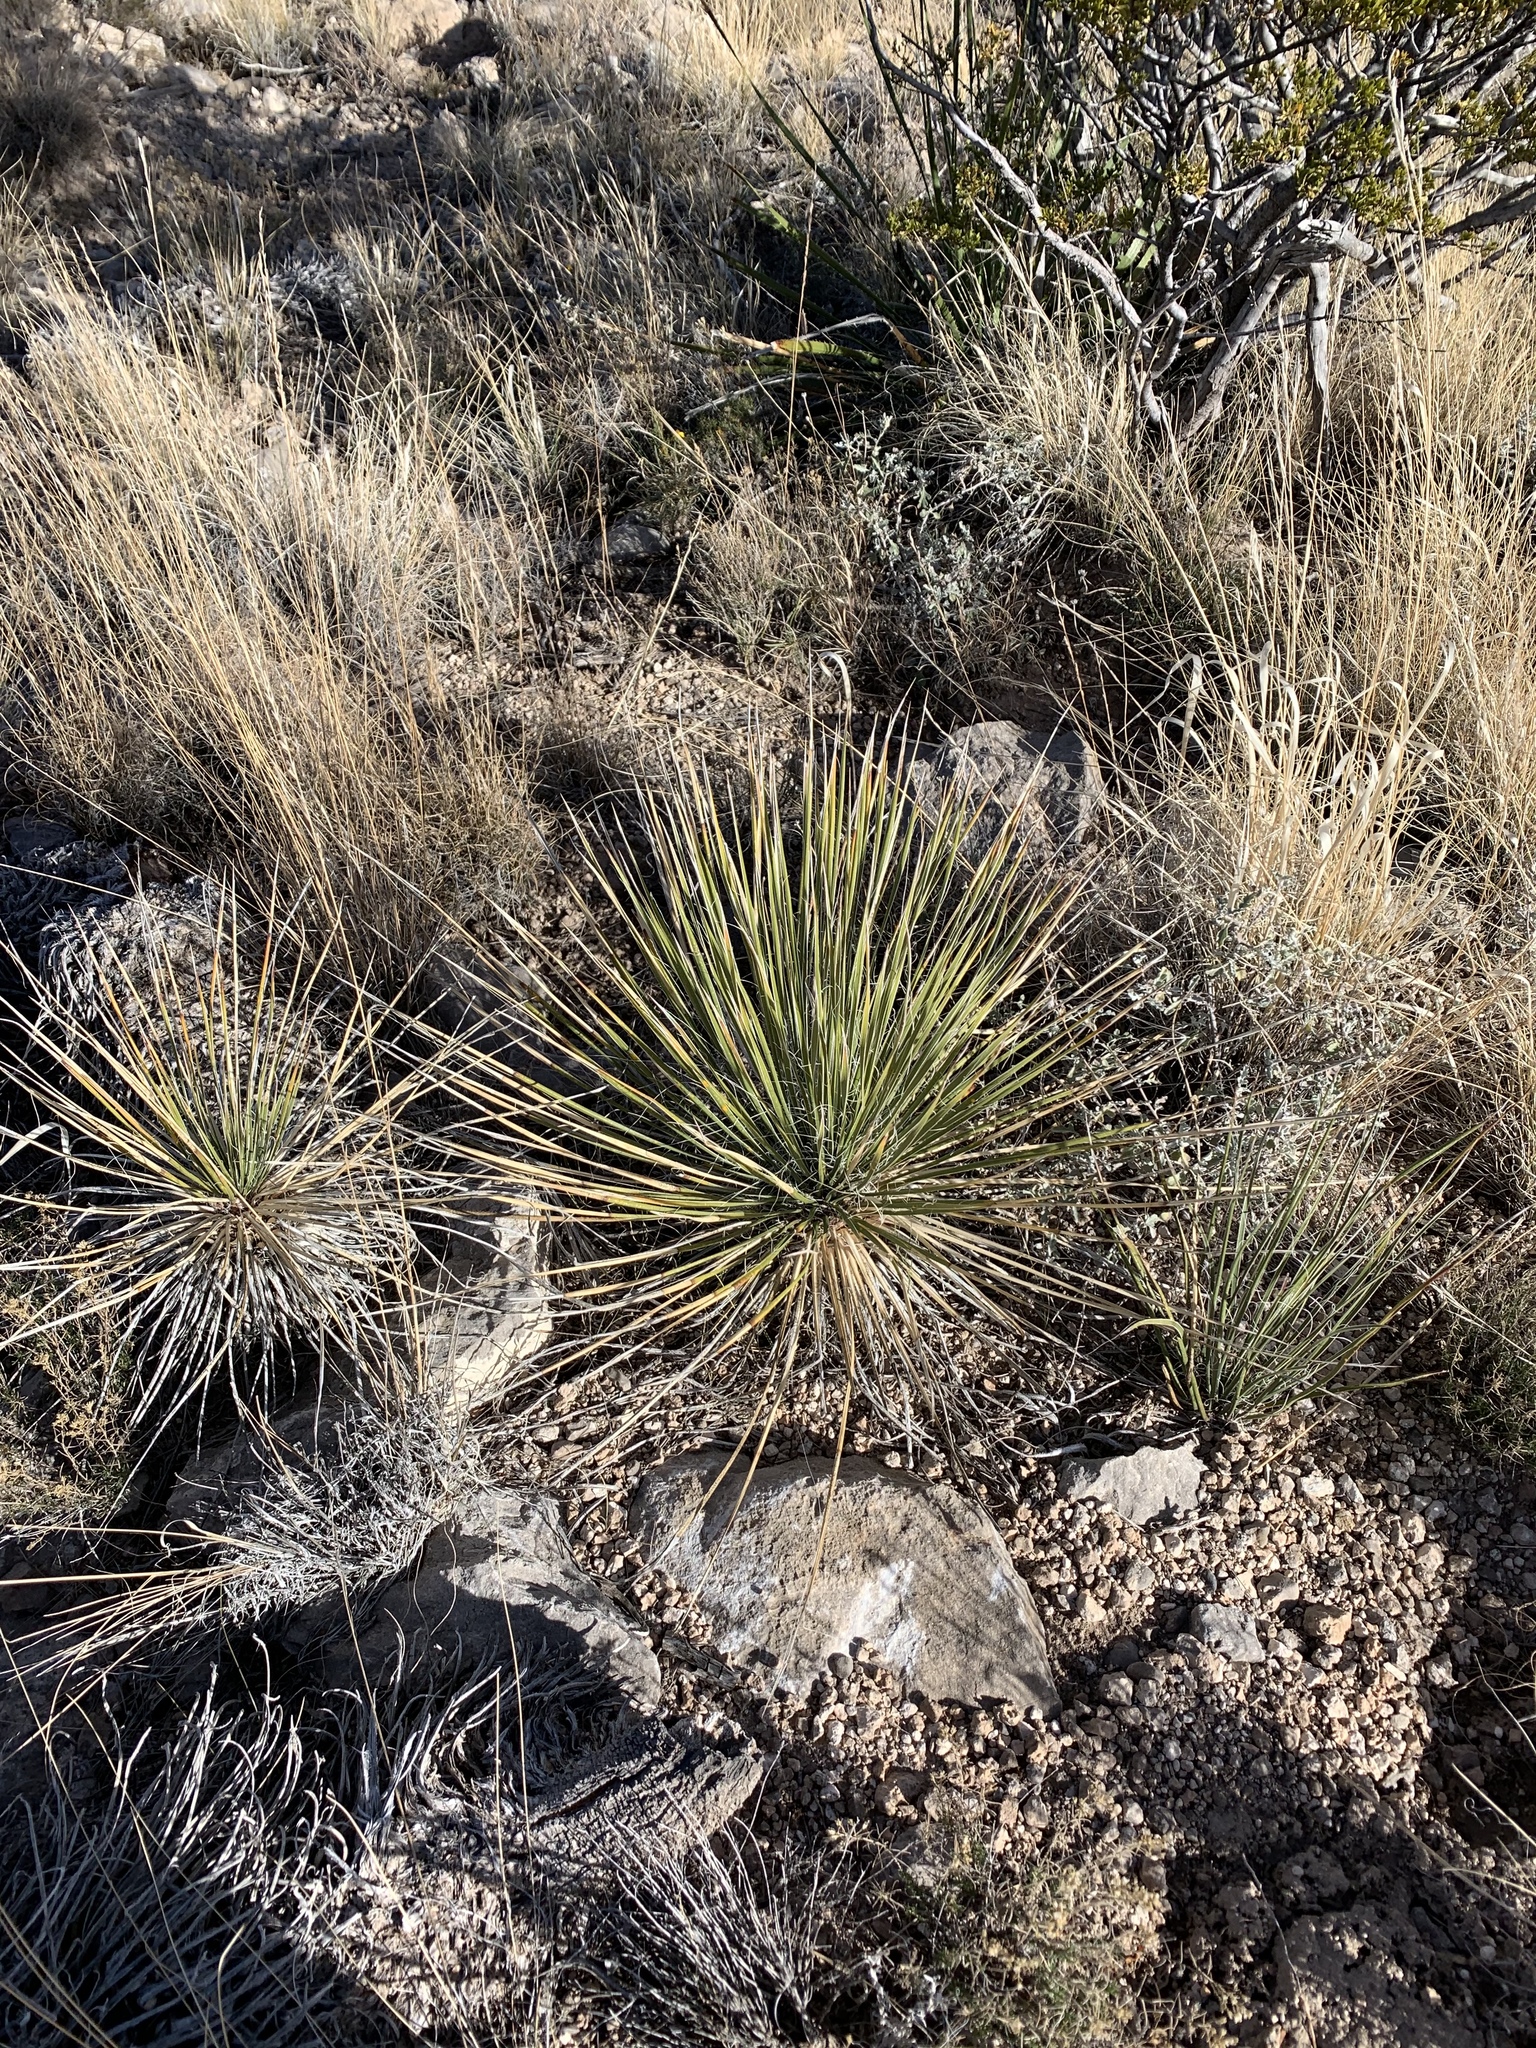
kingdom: Plantae
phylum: Tracheophyta
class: Liliopsida
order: Asparagales
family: Asparagaceae
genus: Yucca
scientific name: Yucca elata
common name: Palmella
